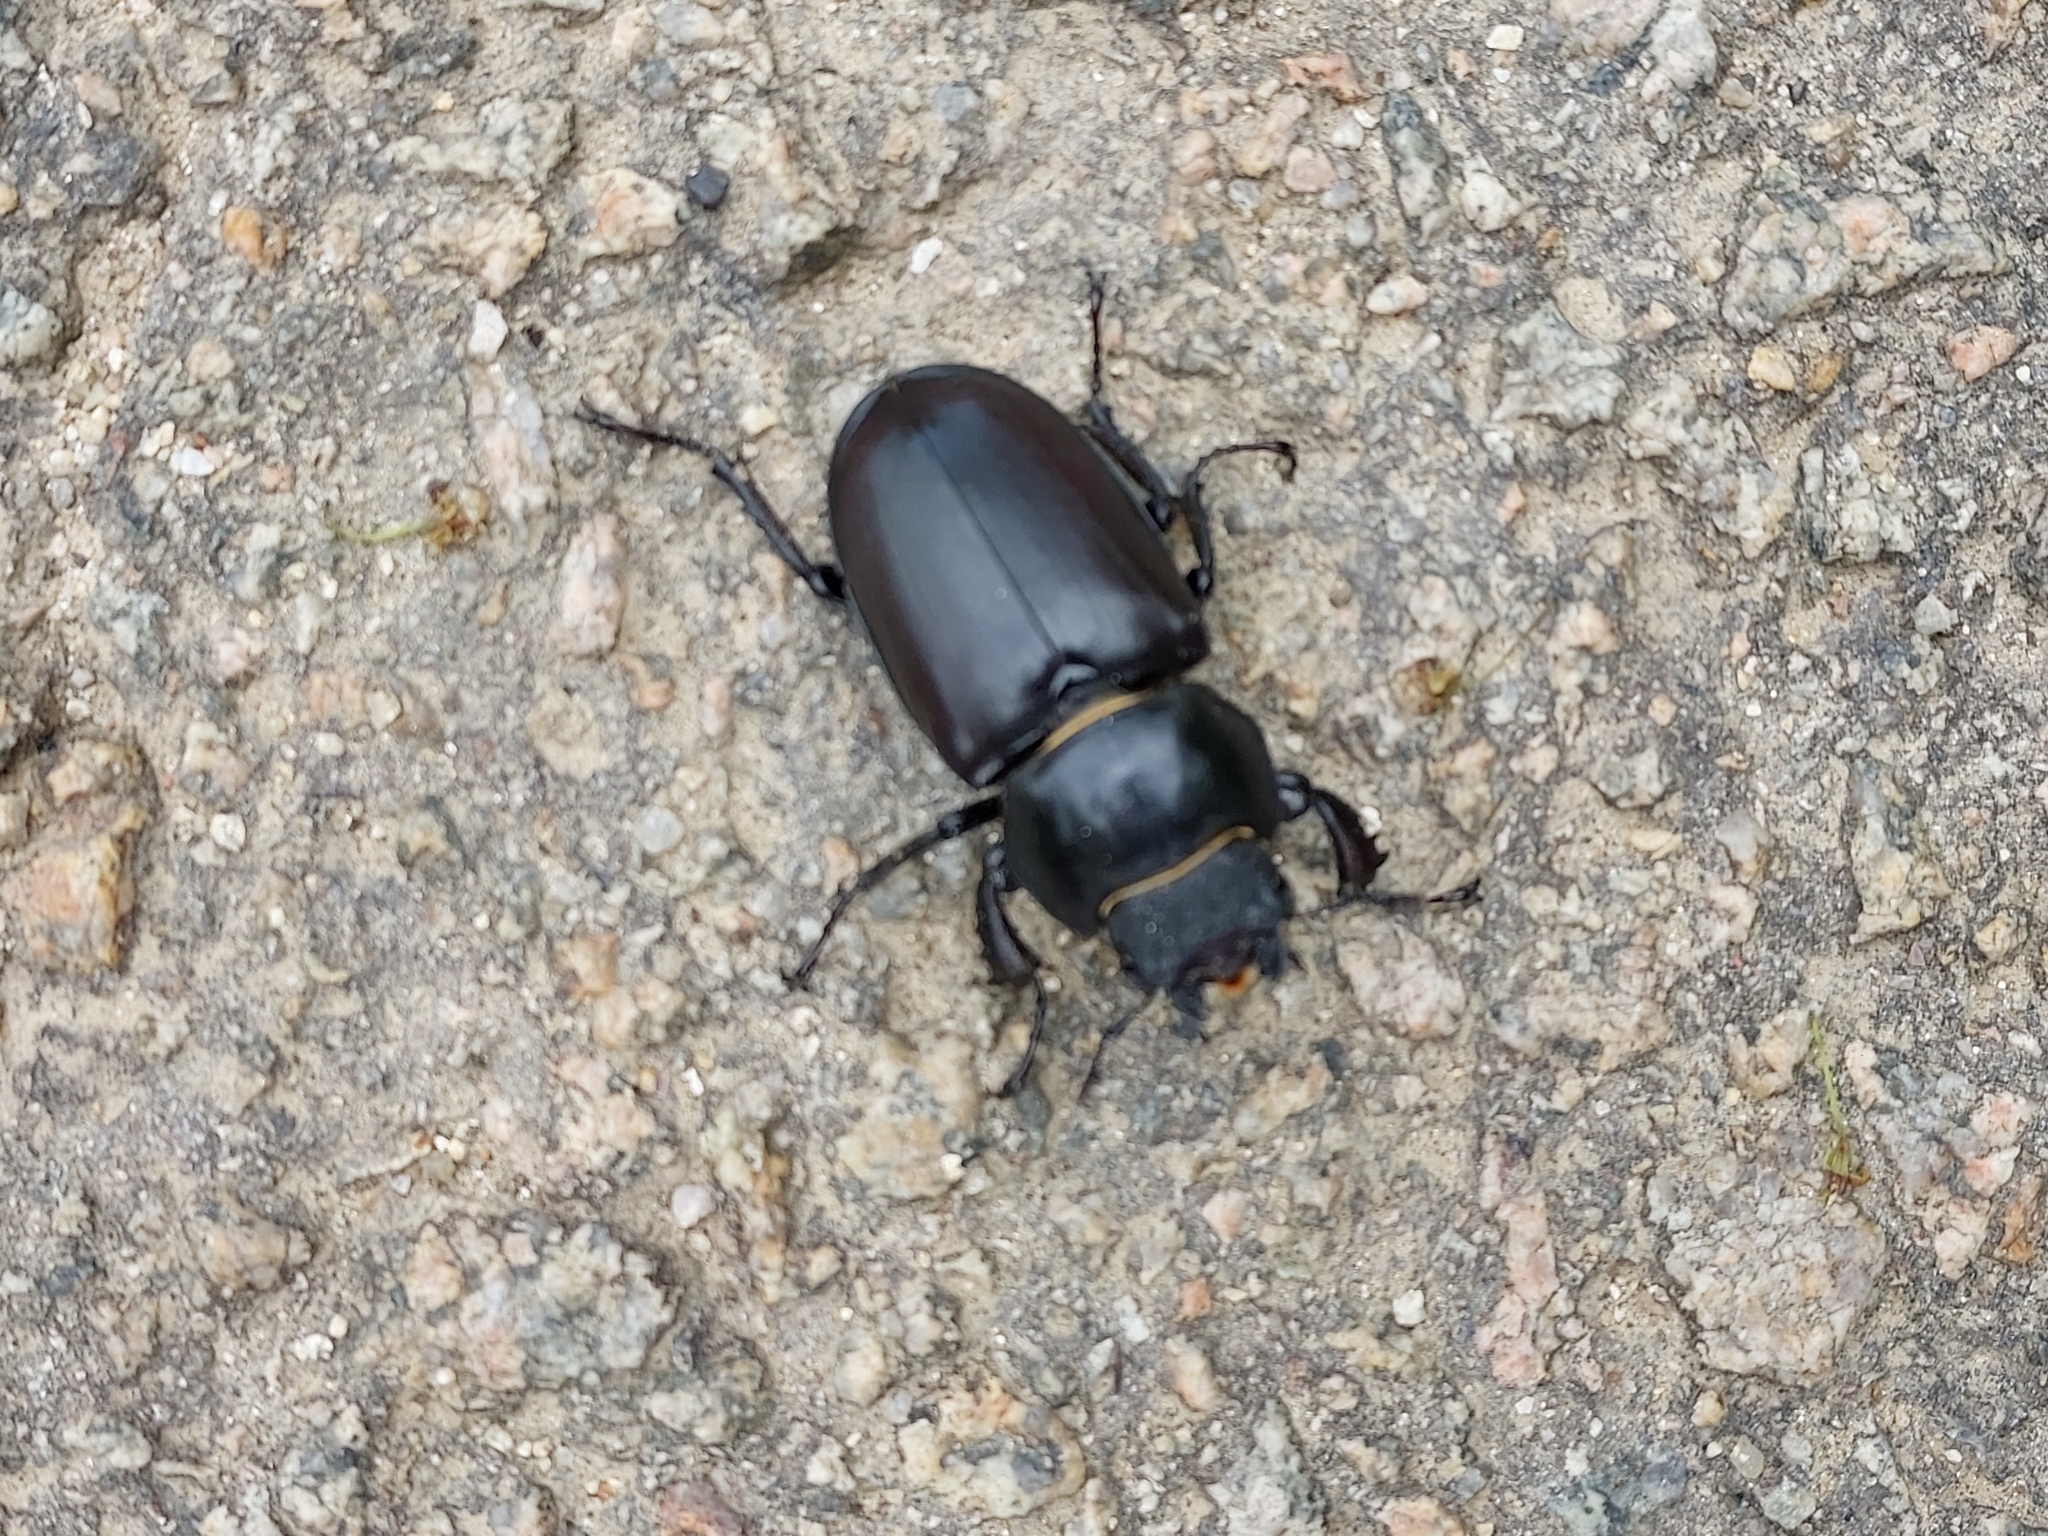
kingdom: Animalia
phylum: Arthropoda
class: Insecta
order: Coleoptera
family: Lucanidae
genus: Lucanus
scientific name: Lucanus cervus
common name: Stag beetle
